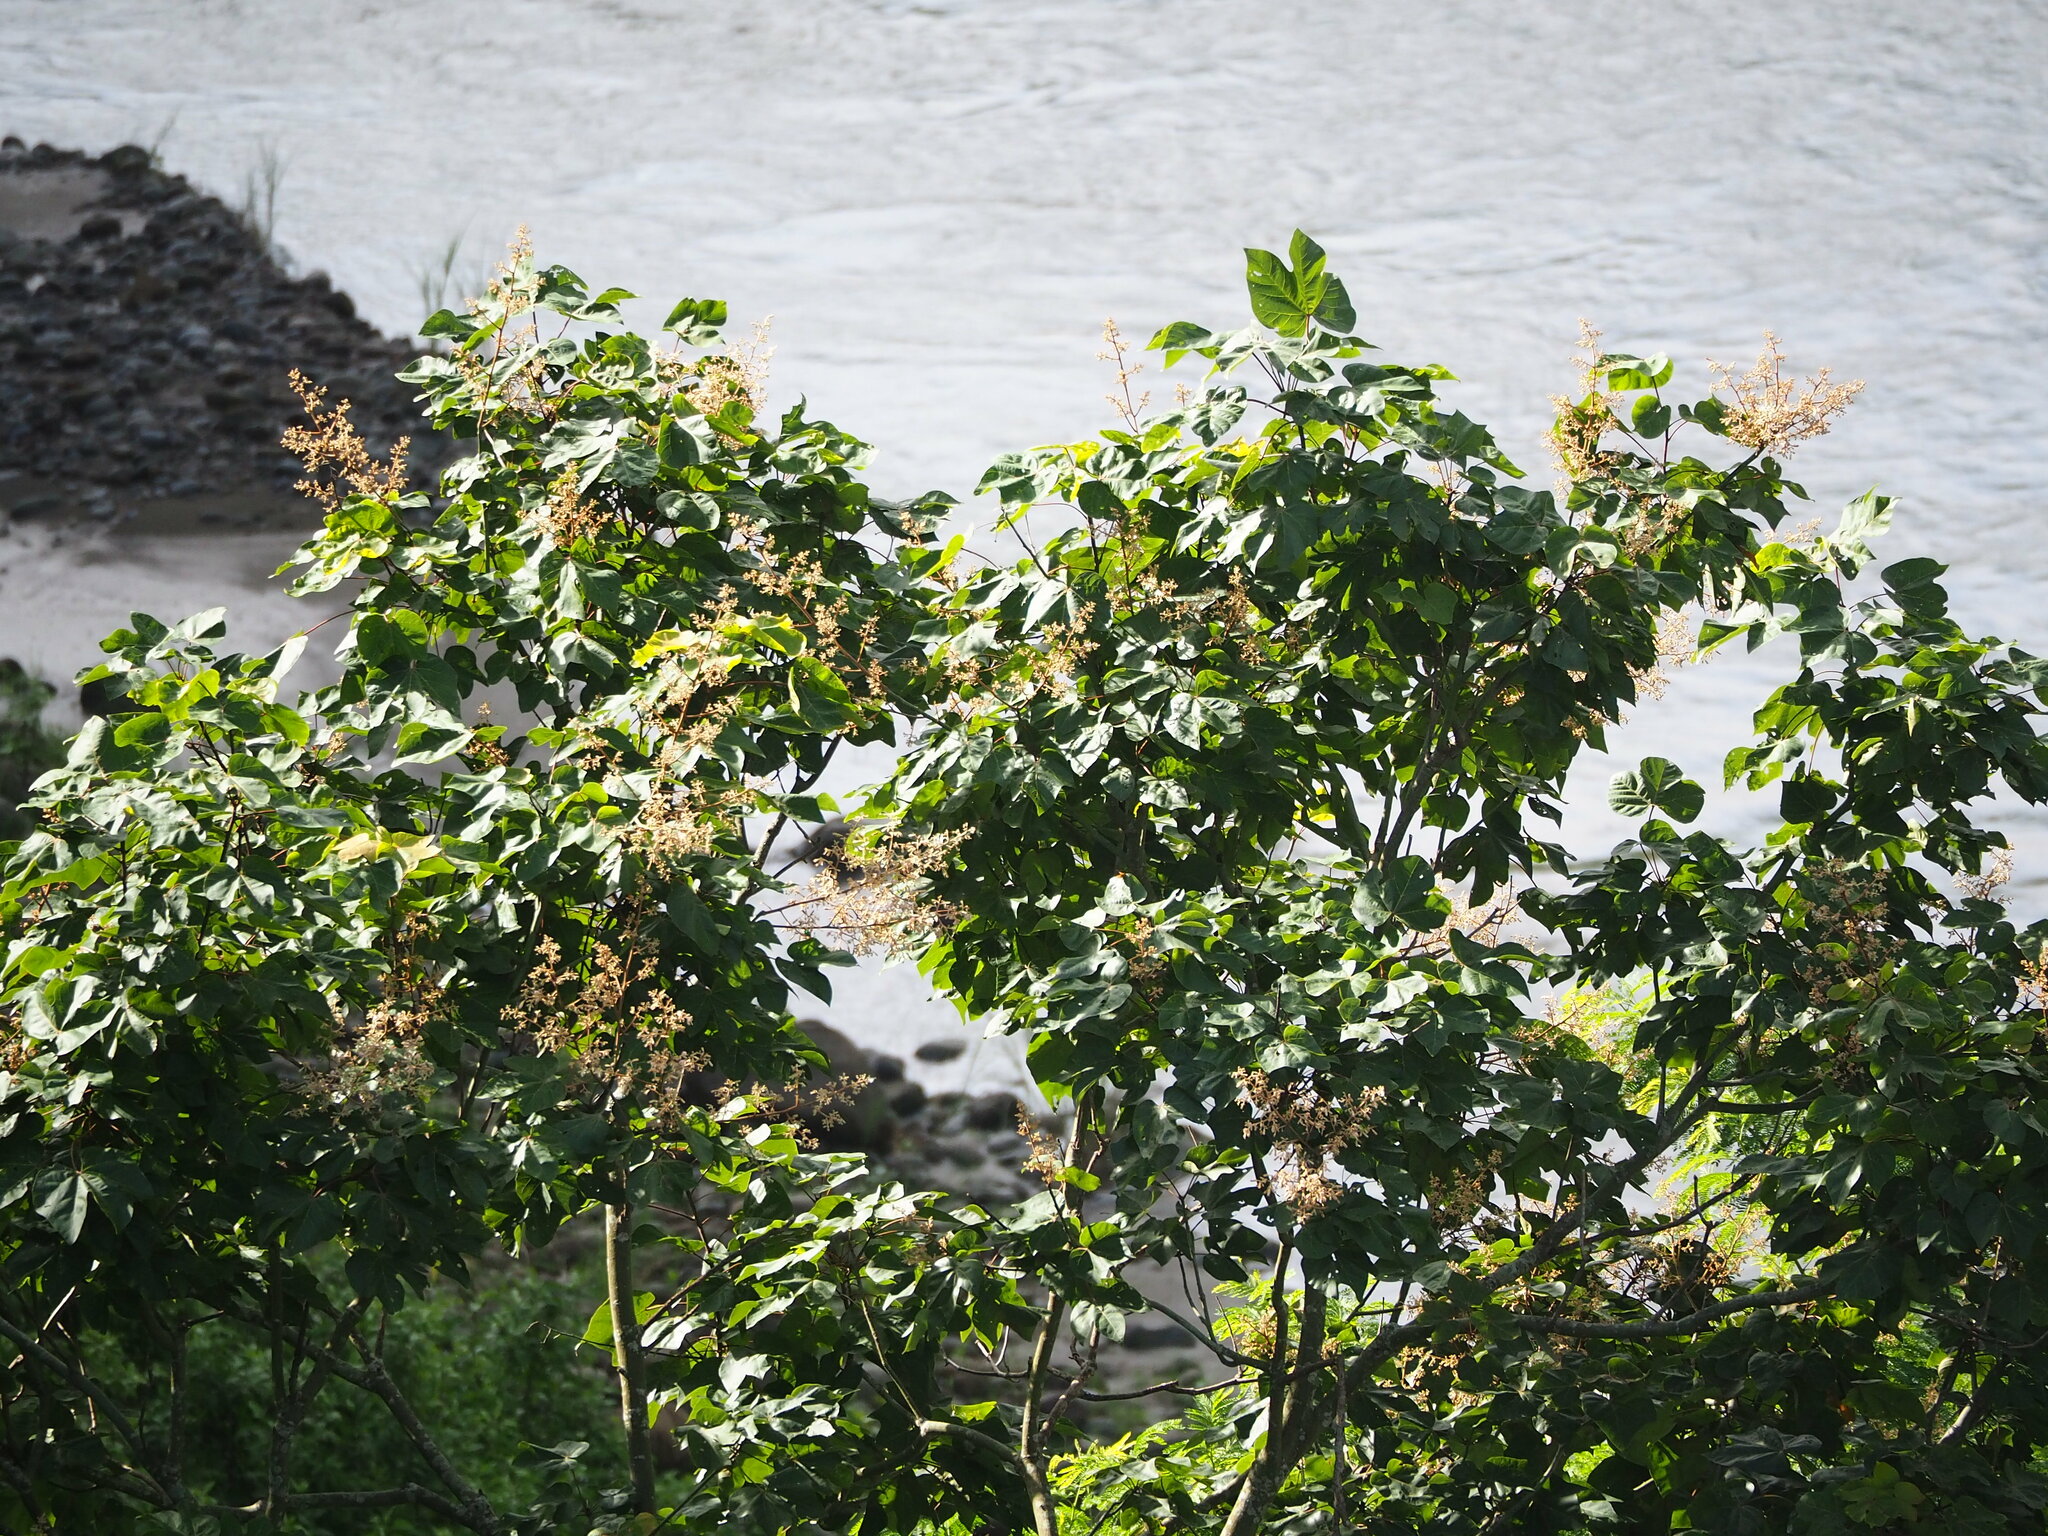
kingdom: Plantae
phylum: Tracheophyta
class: Magnoliopsida
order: Malvales
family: Malvaceae
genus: Firmiana
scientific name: Firmiana simplex
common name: Chinese parasoltree
